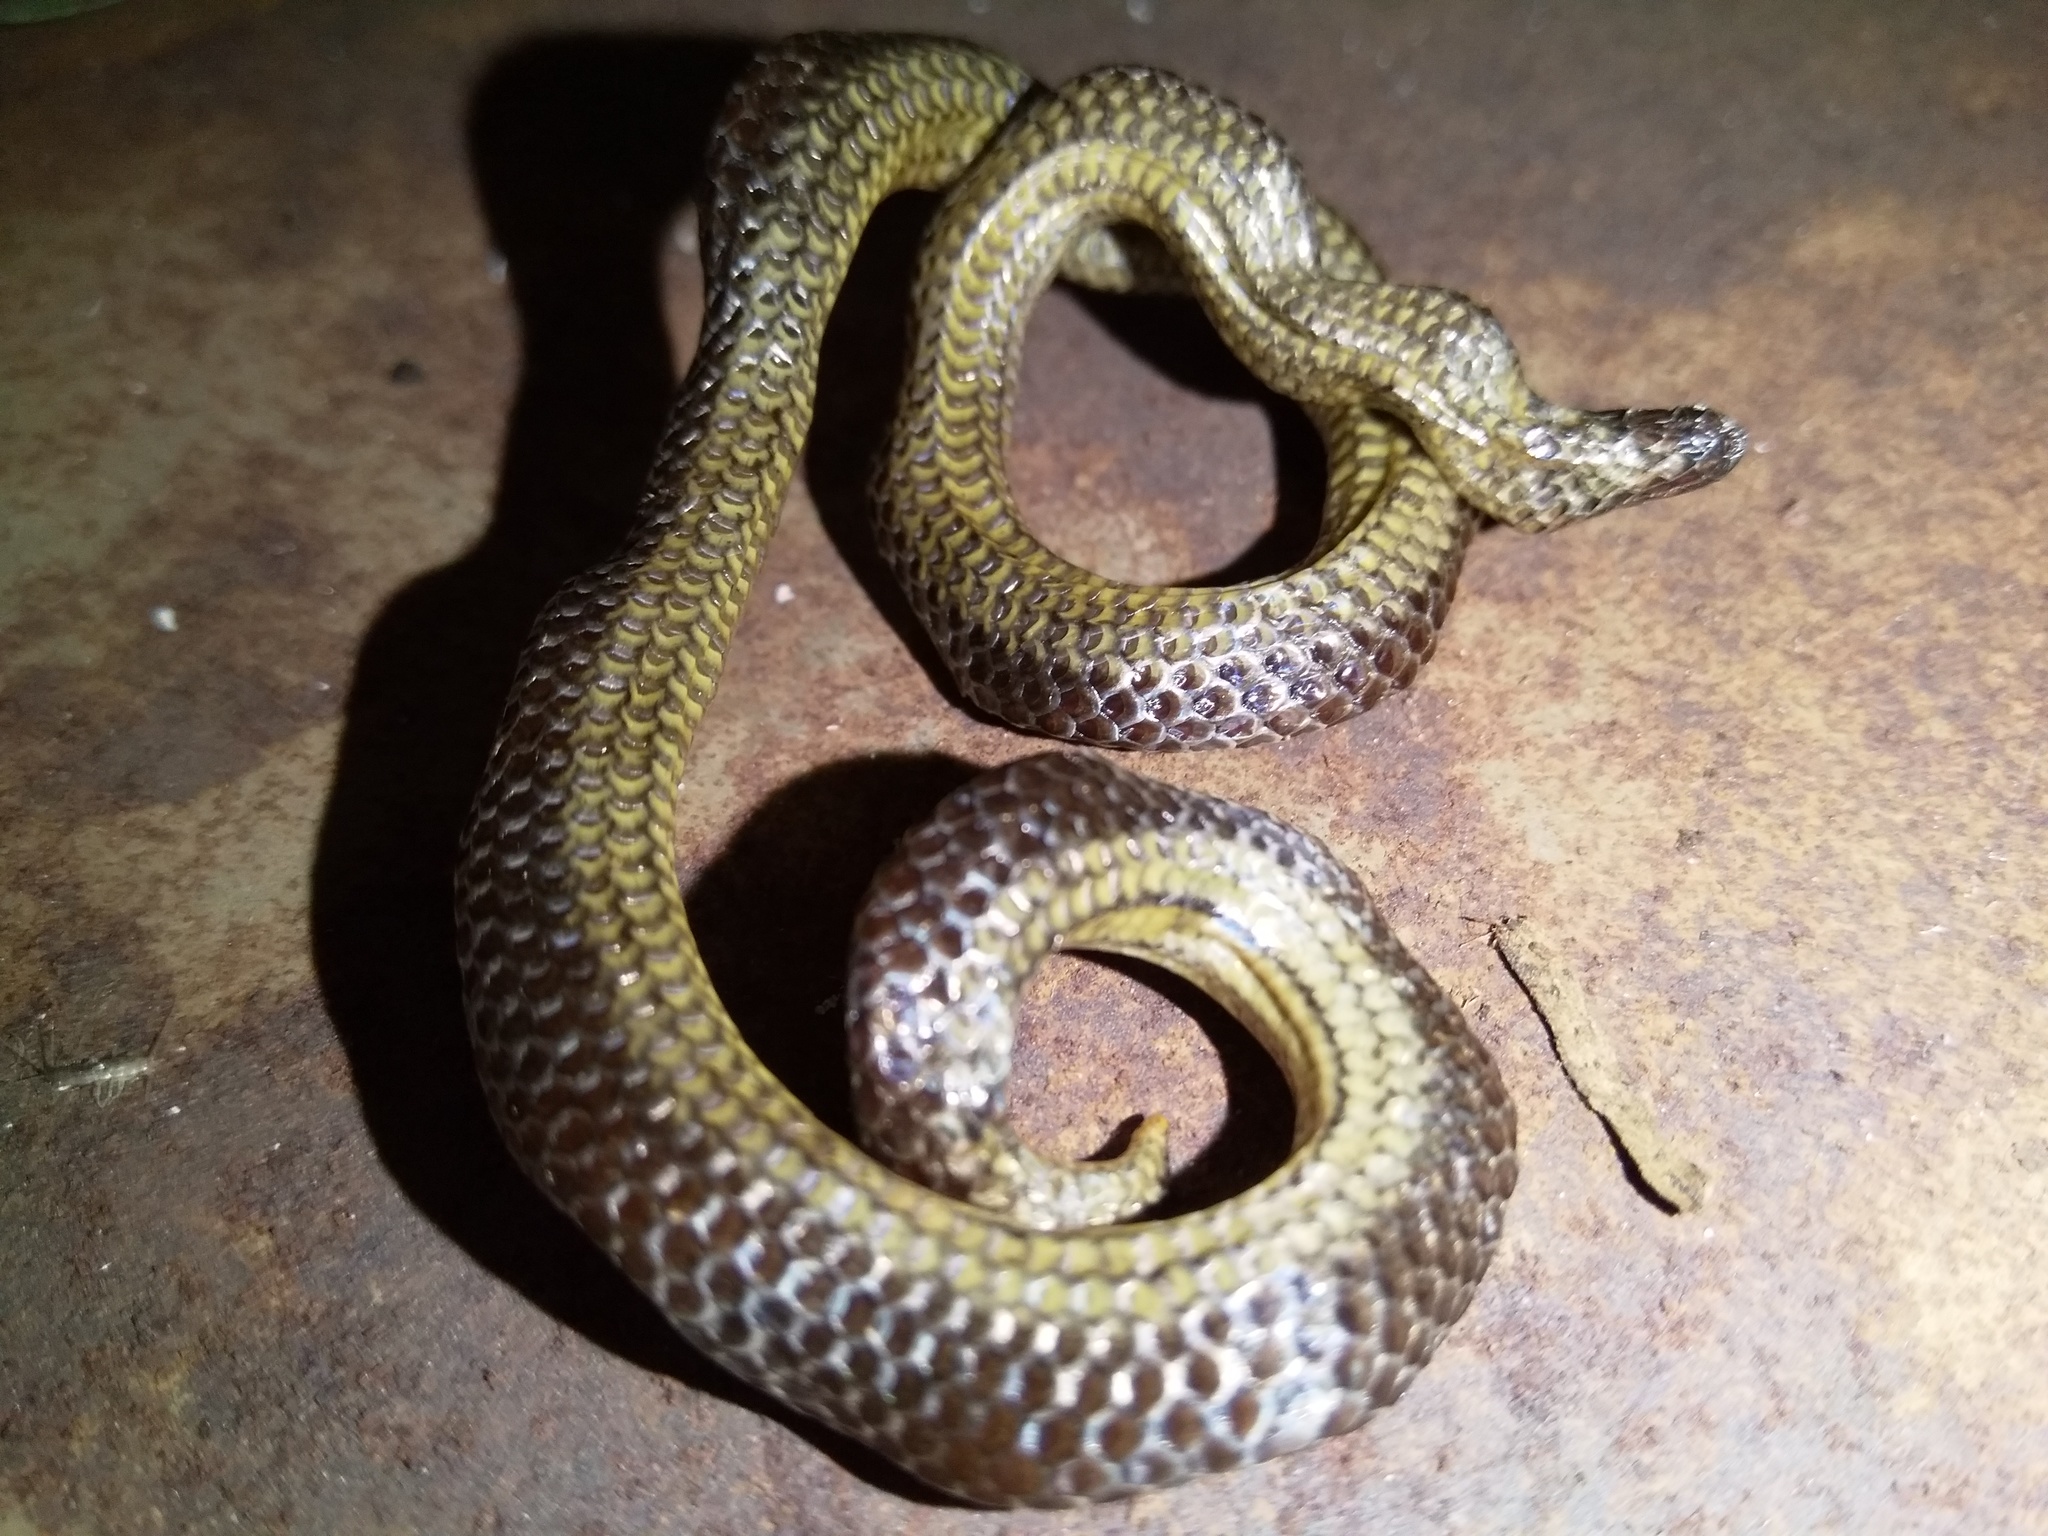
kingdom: Animalia
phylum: Chordata
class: Squamata
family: Uropeltidae
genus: Platyplectrurus
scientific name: Platyplectrurus madurensis
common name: Travancore hills thorntail snake
